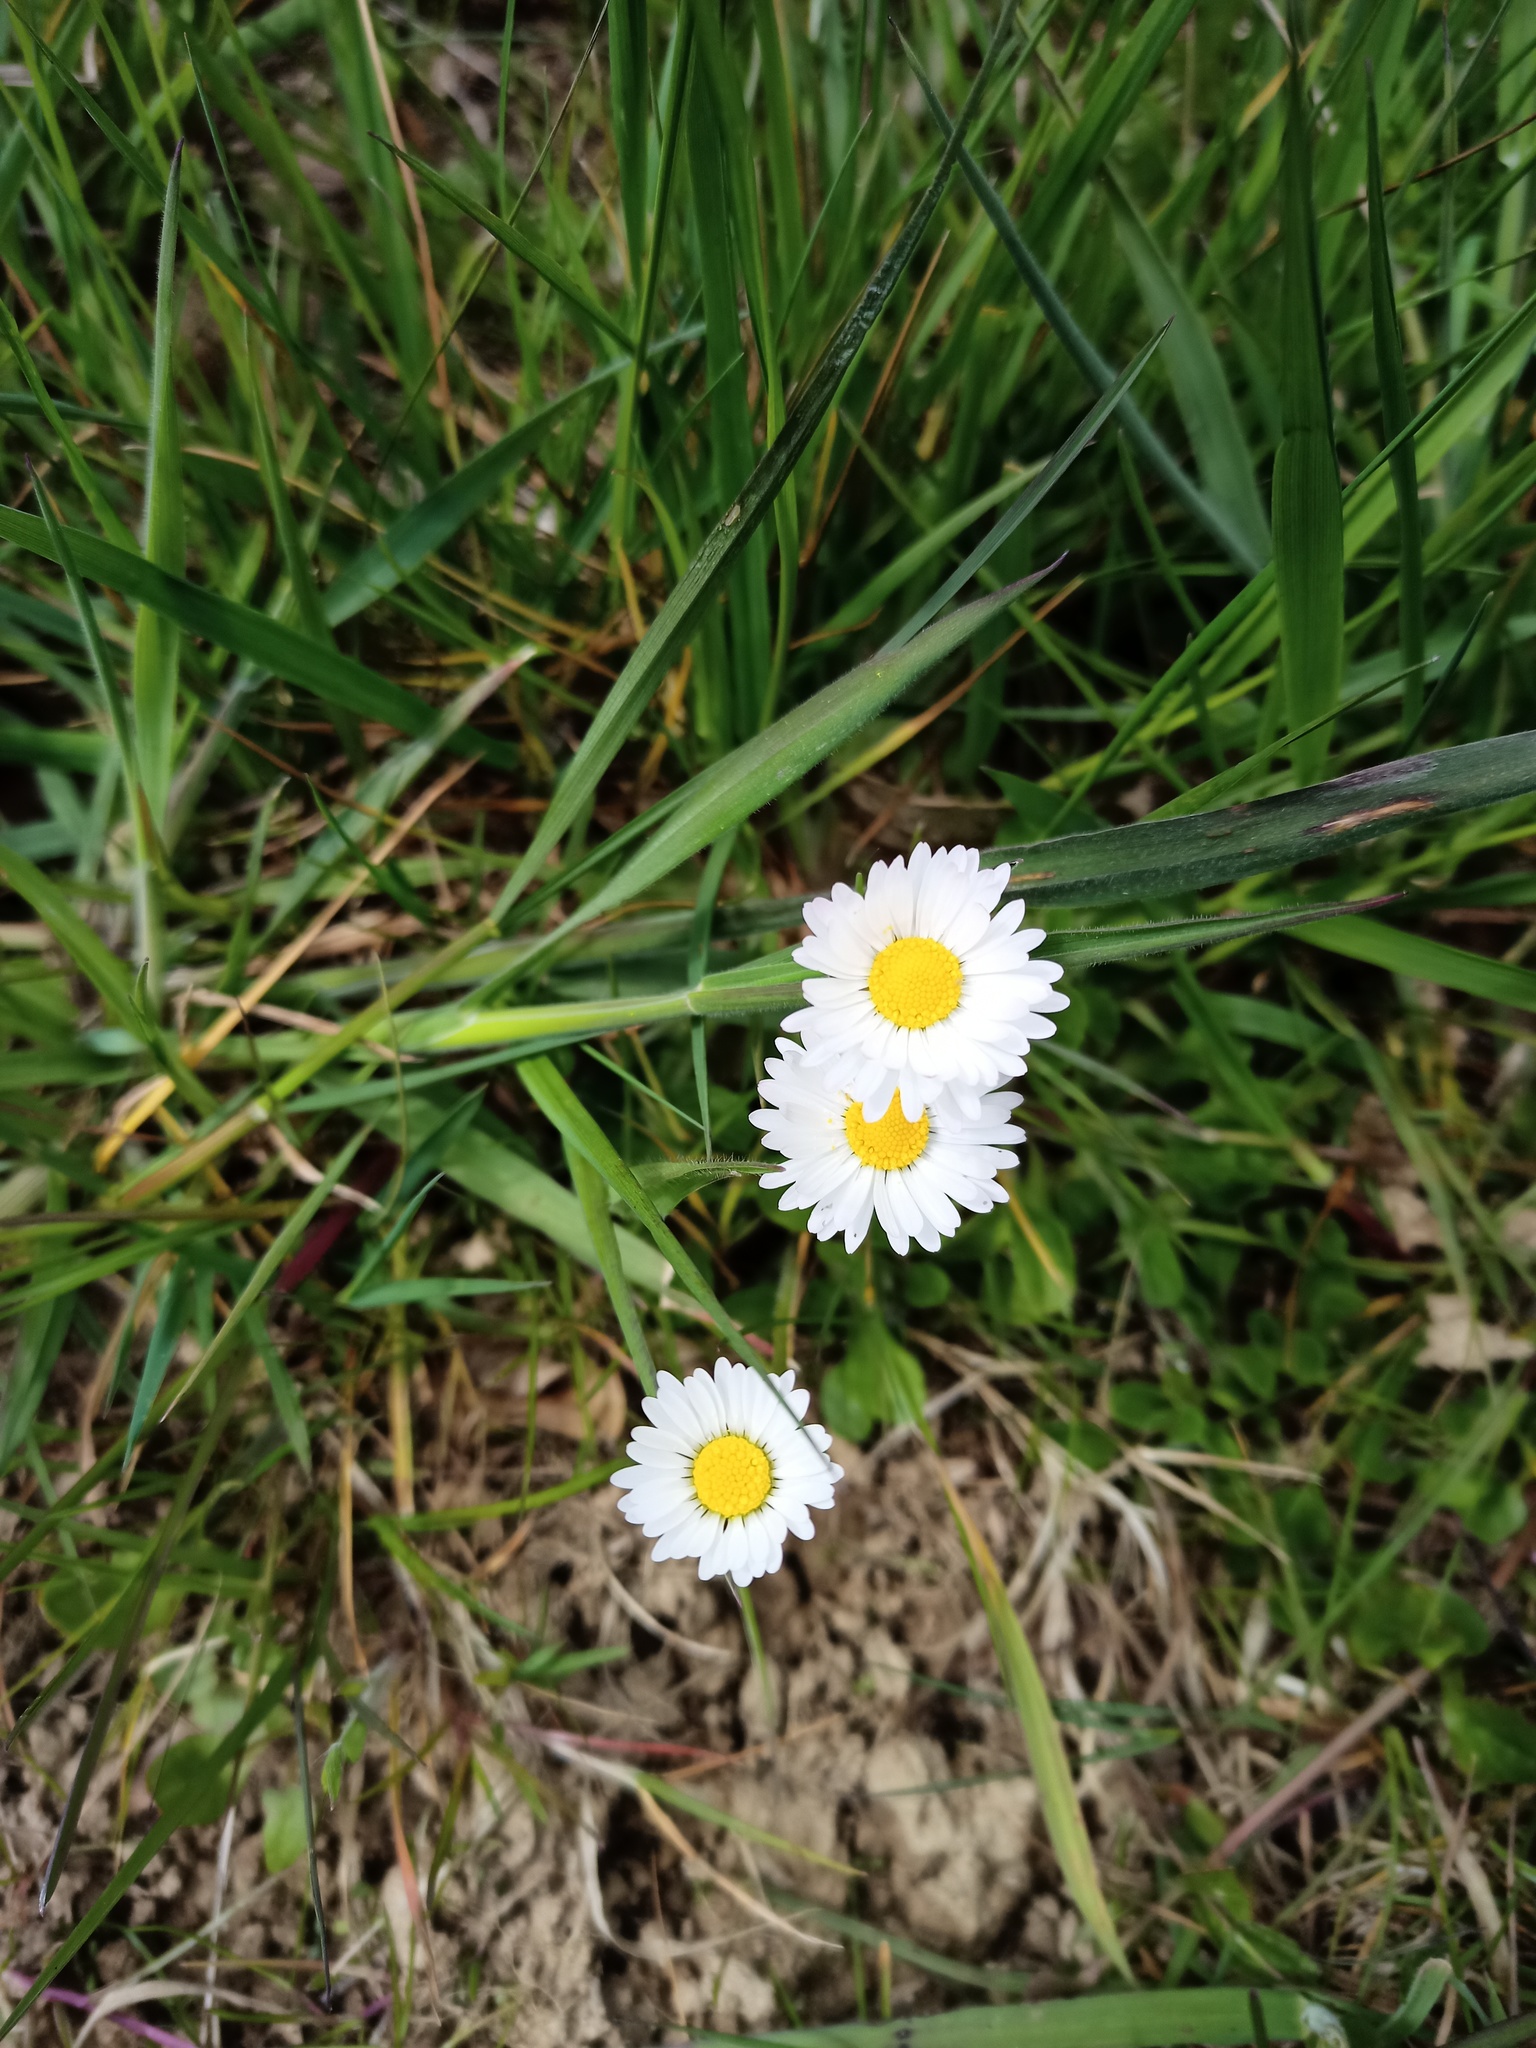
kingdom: Plantae
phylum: Tracheophyta
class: Magnoliopsida
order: Asterales
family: Asteraceae
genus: Bellis
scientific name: Bellis perennis
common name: Lawndaisy
